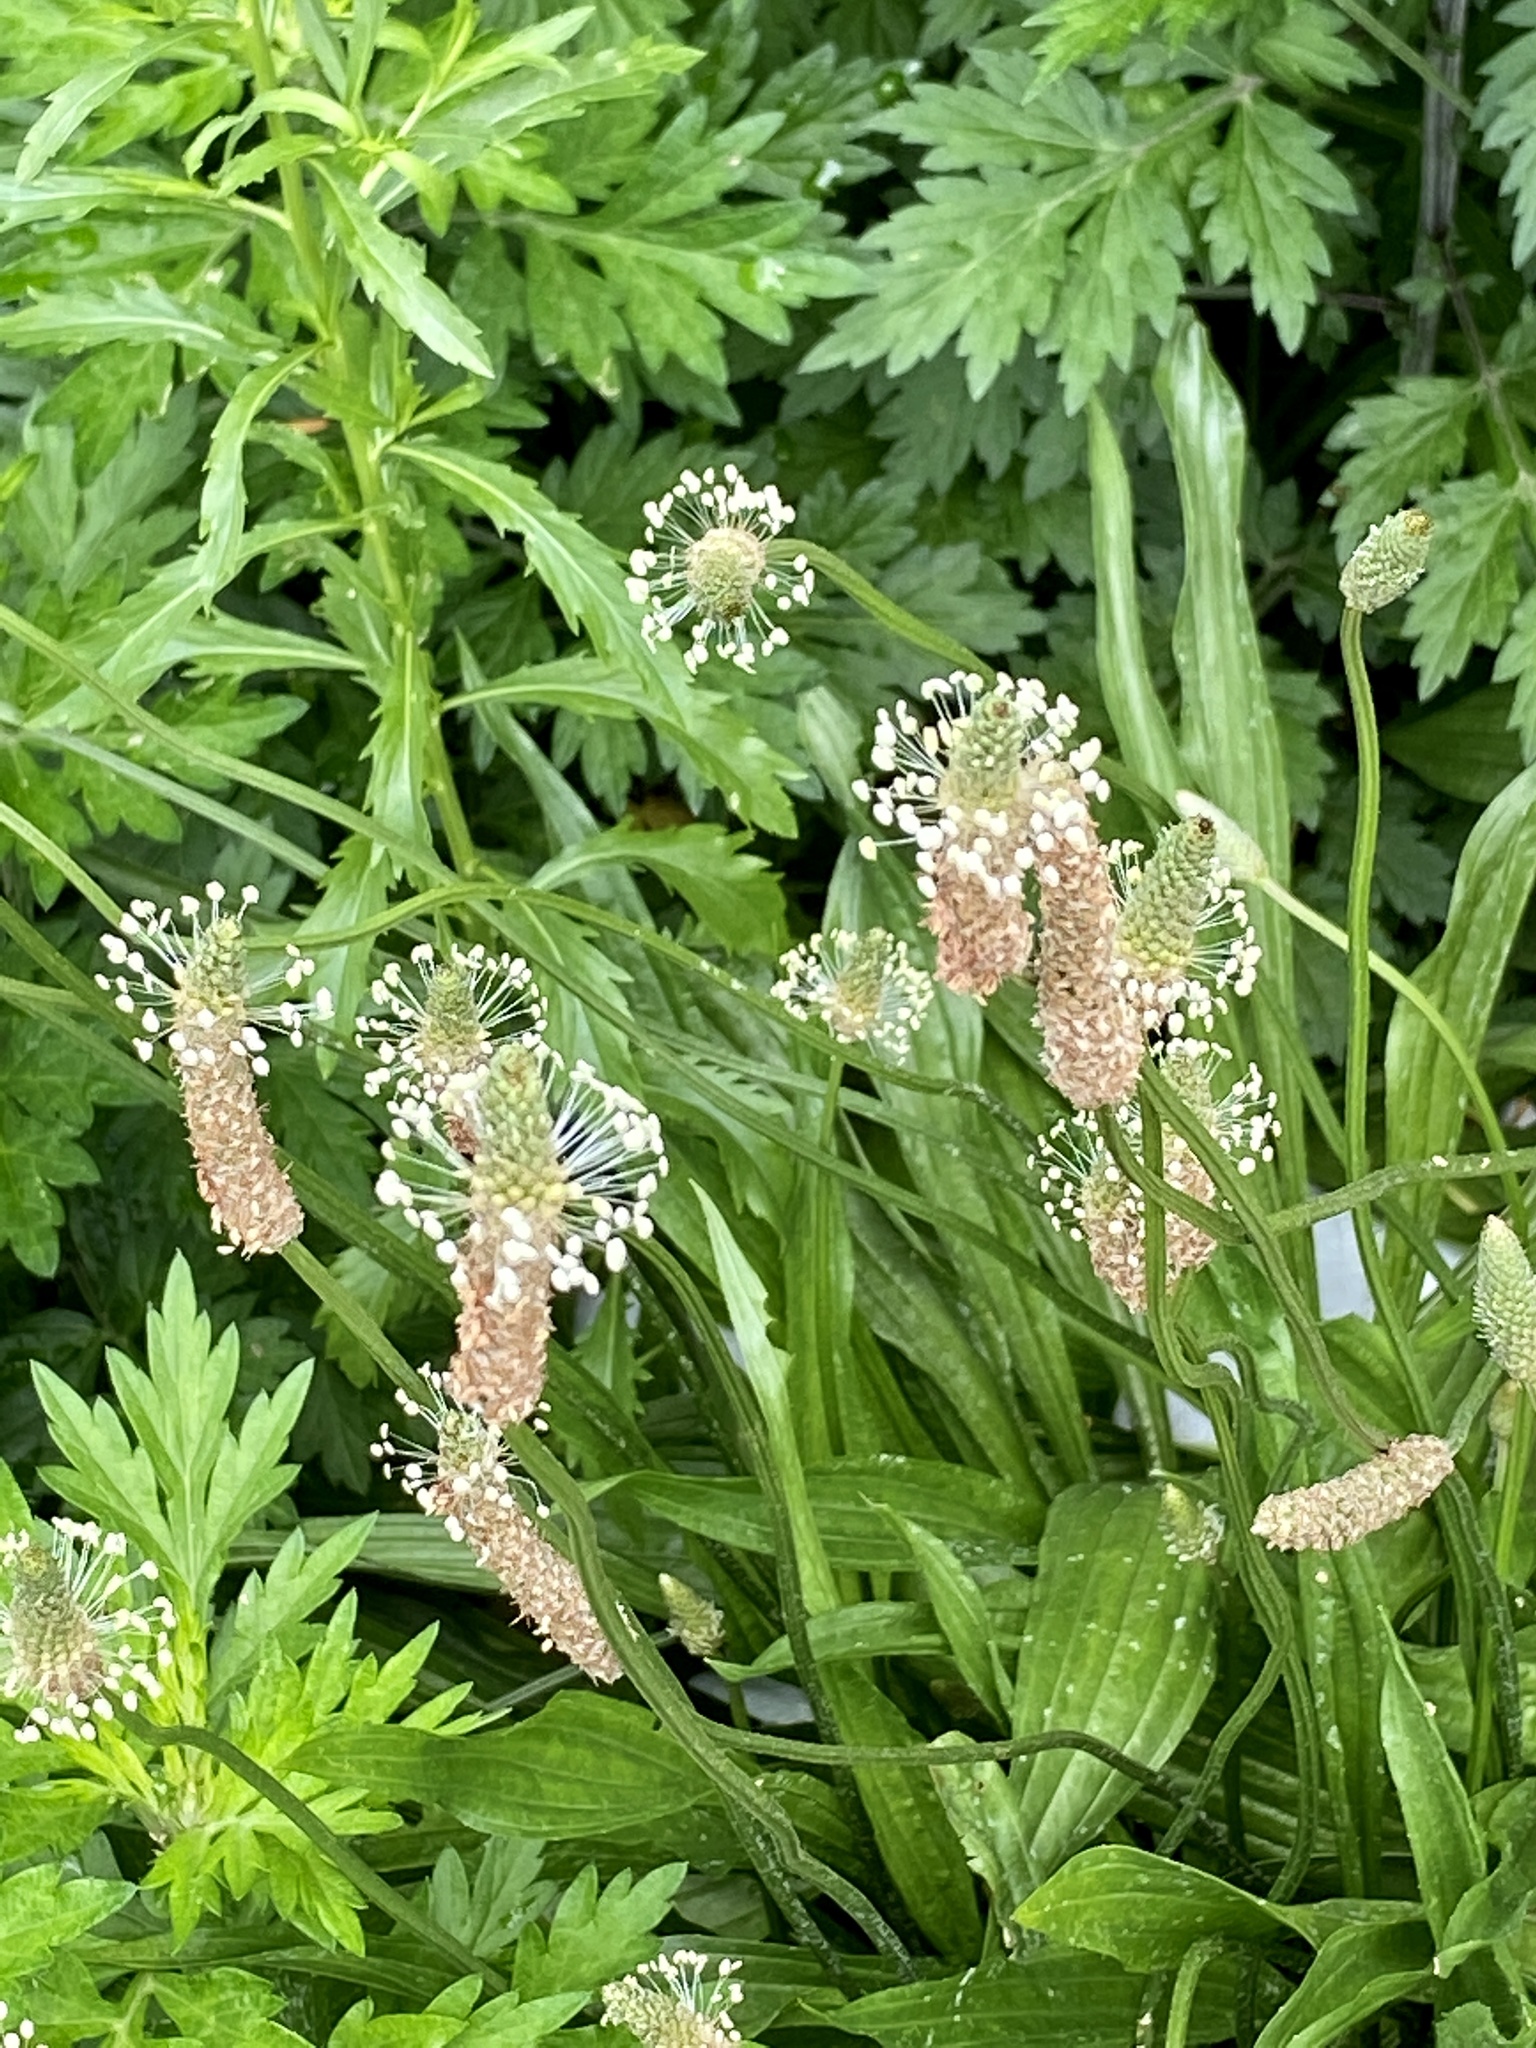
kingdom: Plantae
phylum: Tracheophyta
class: Magnoliopsida
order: Lamiales
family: Plantaginaceae
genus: Plantago
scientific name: Plantago lanceolata
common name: Ribwort plantain
